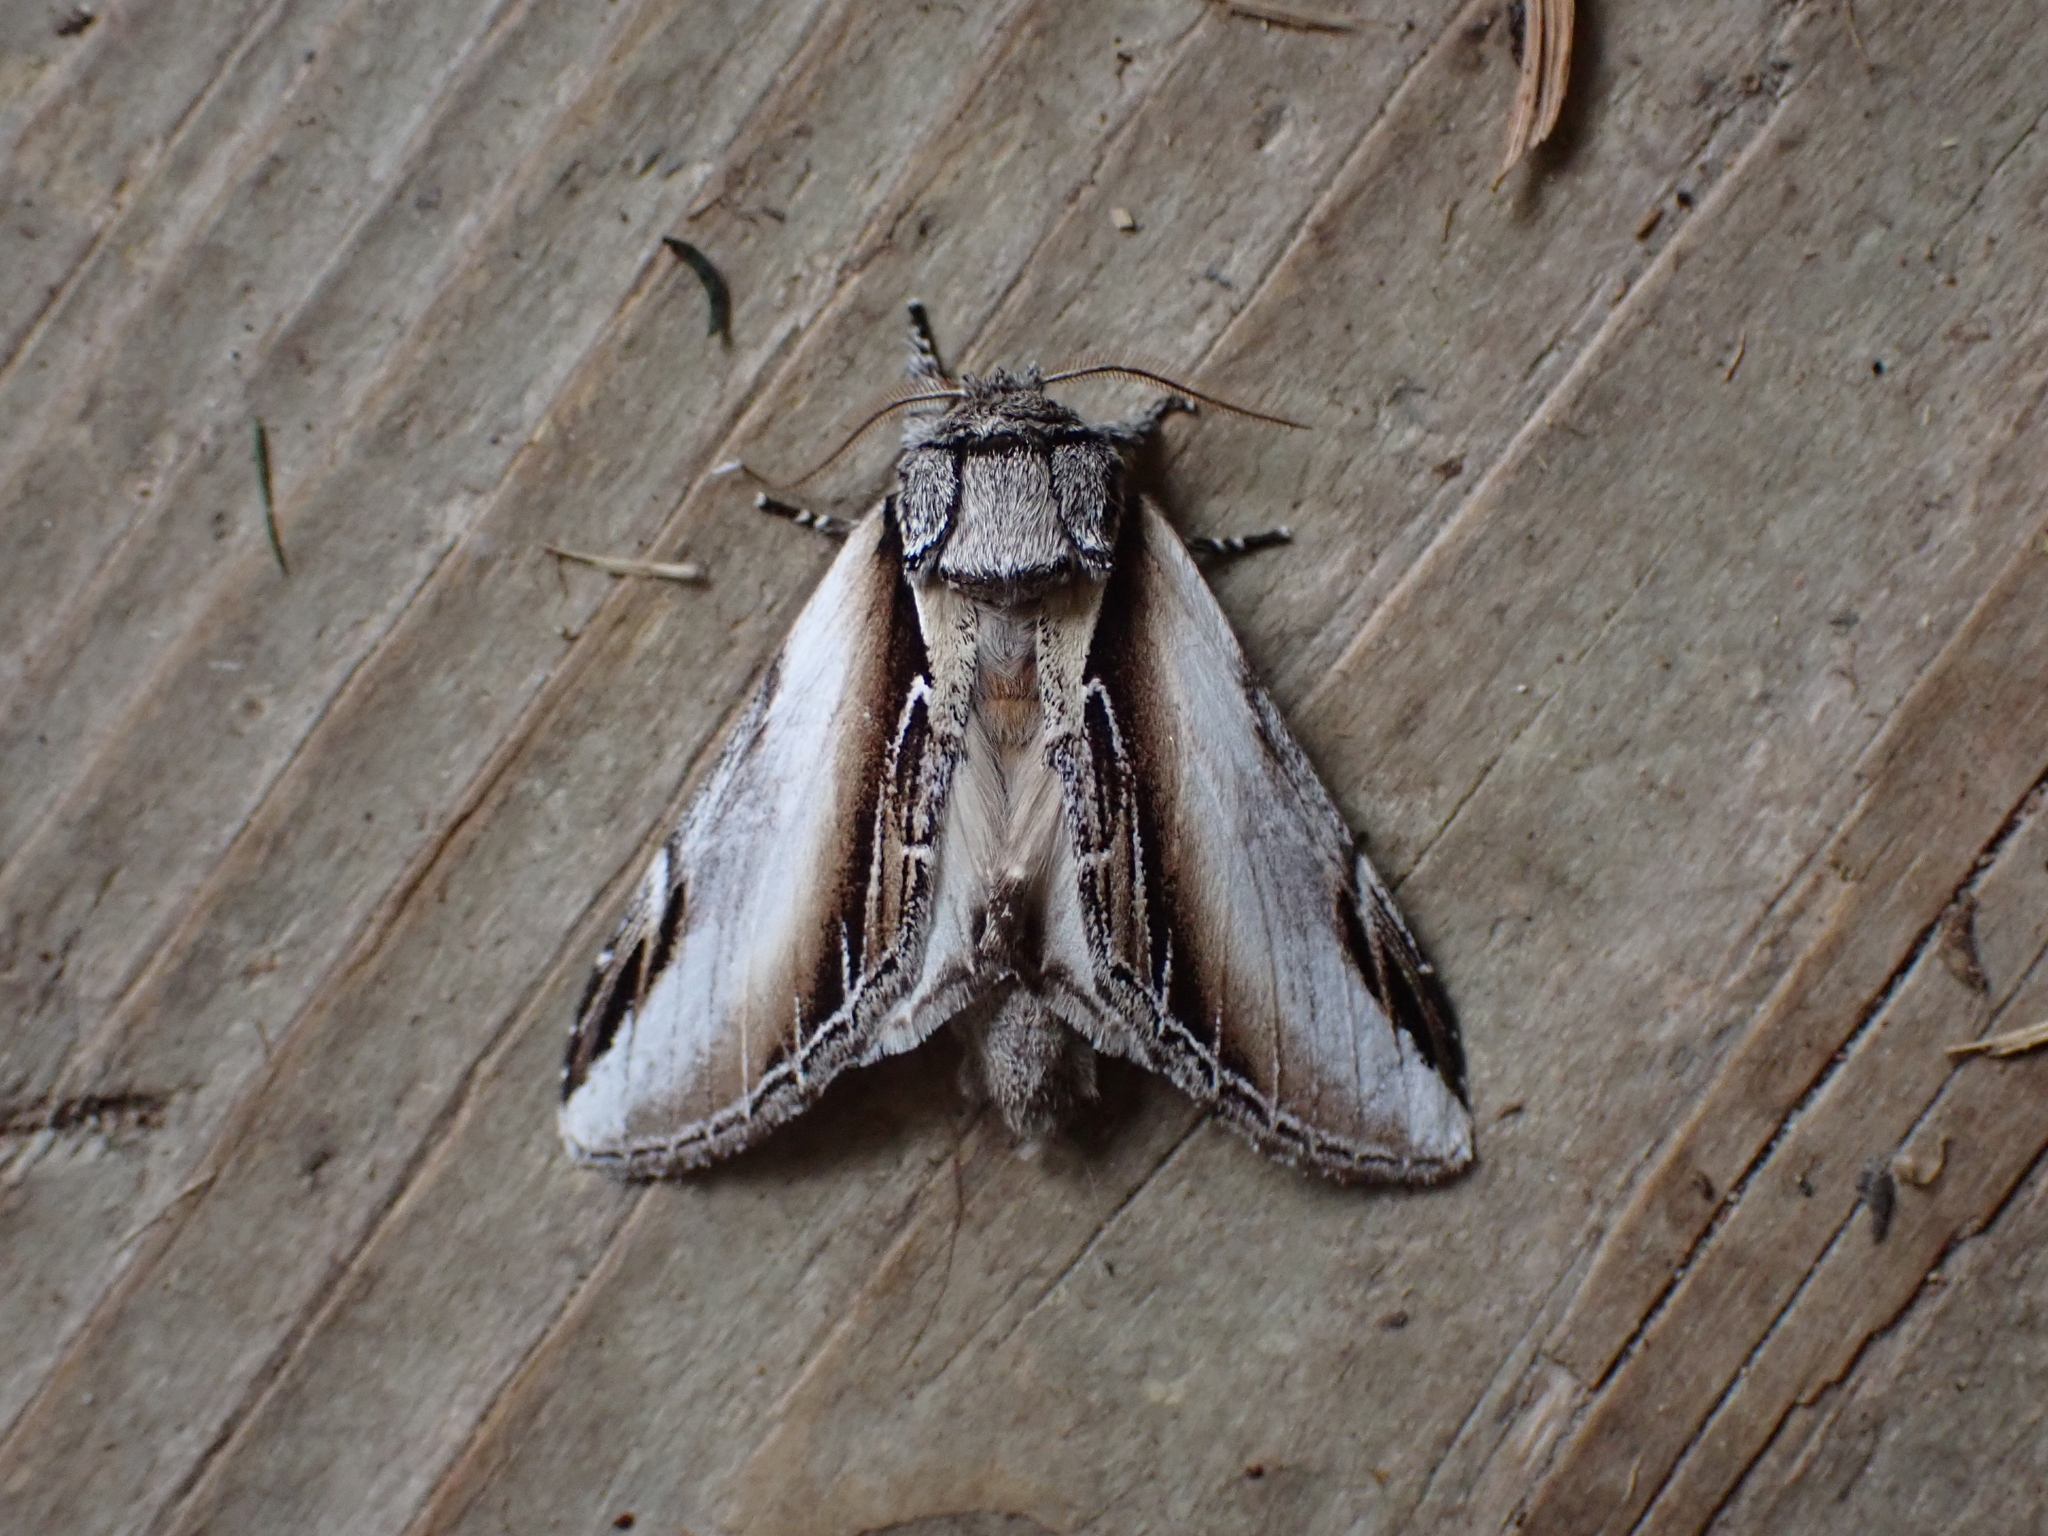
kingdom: Animalia
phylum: Arthropoda
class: Insecta
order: Lepidoptera
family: Notodontidae
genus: Pheosia
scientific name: Pheosia rimosa
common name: Black-rimmed prominent
